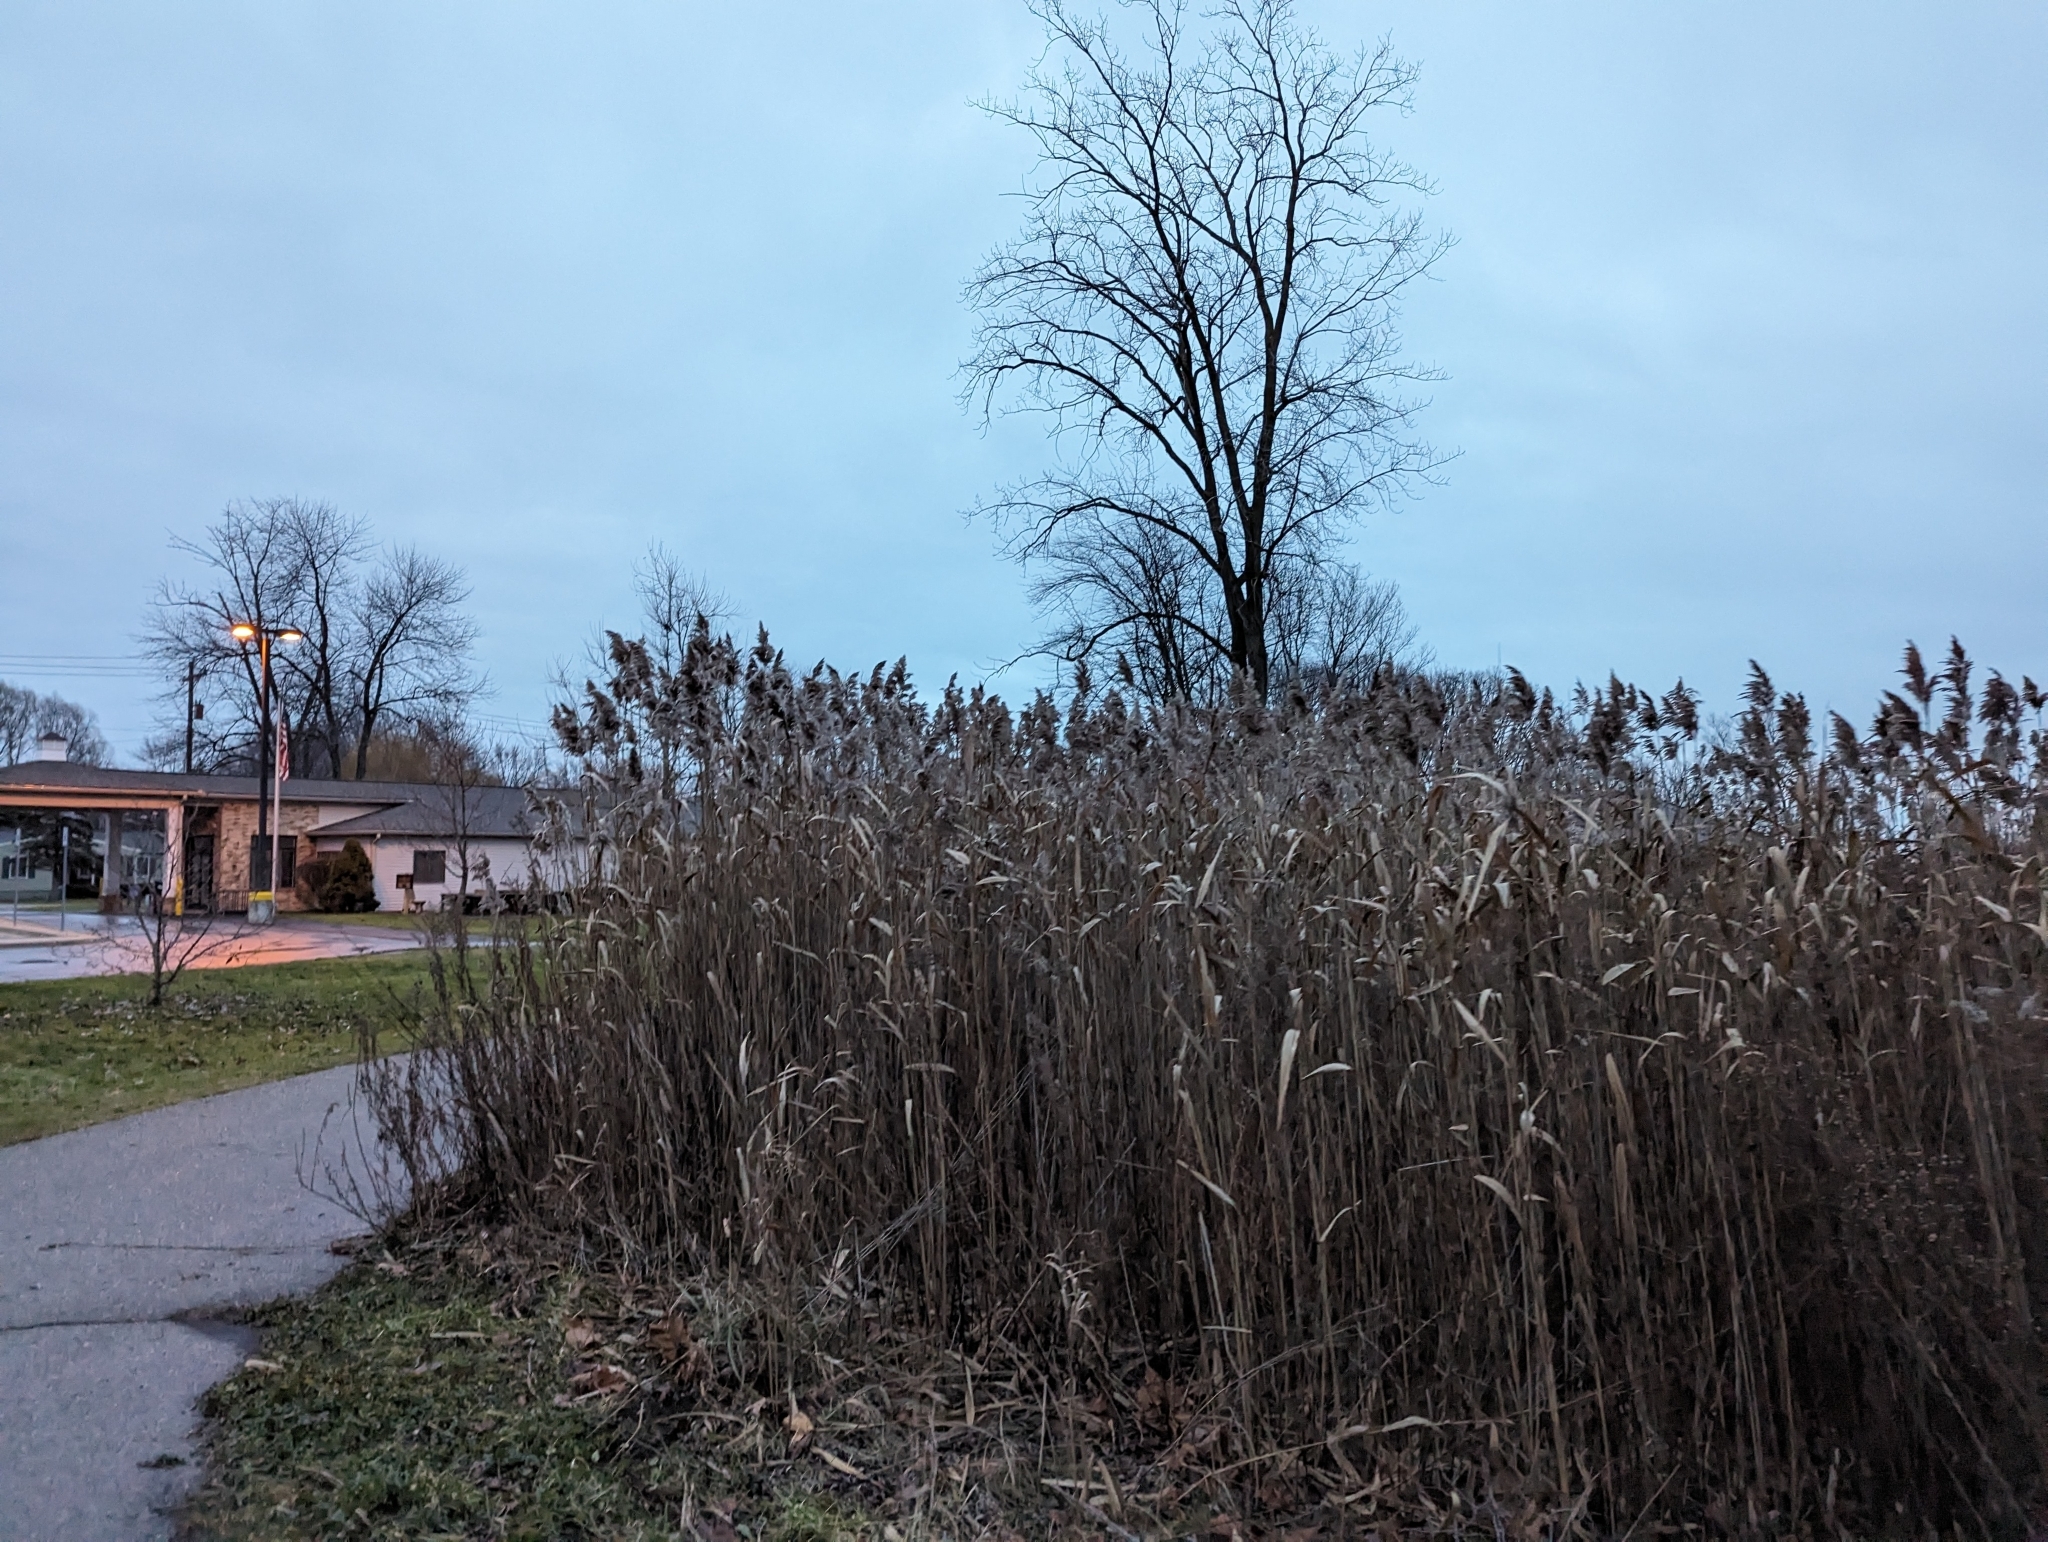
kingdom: Plantae
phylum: Tracheophyta
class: Liliopsida
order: Poales
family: Poaceae
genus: Phragmites
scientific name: Phragmites australis
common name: Common reed
